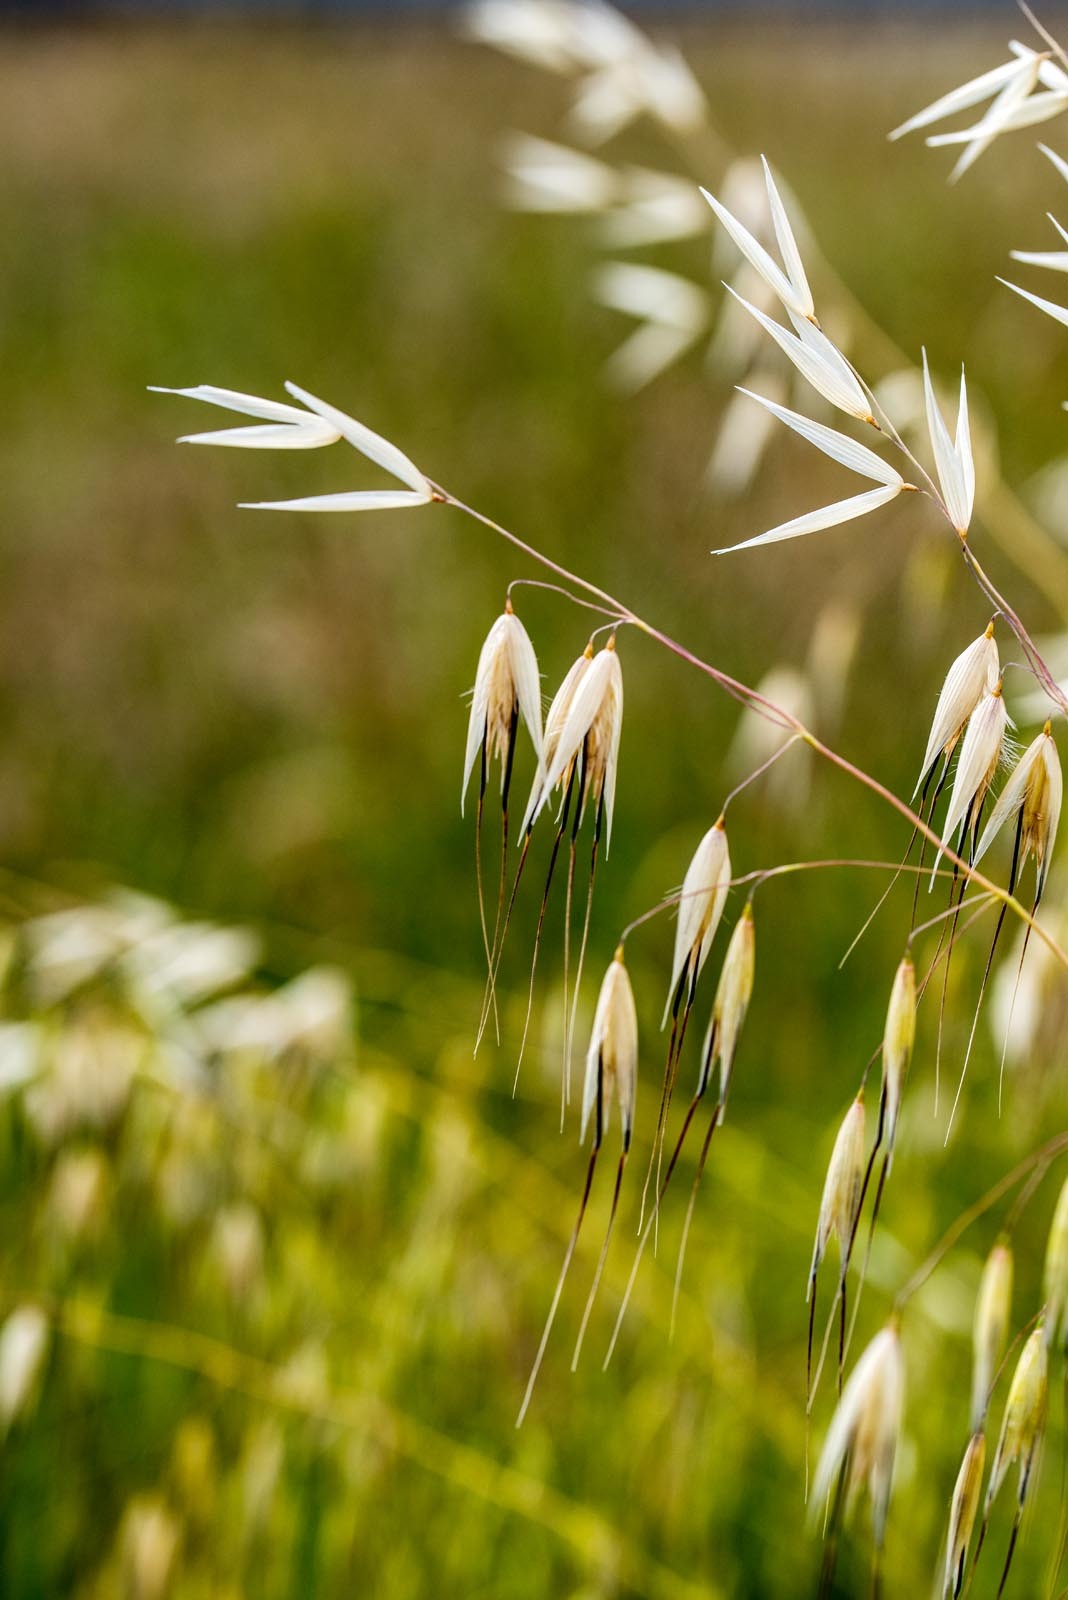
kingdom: Plantae
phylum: Tracheophyta
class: Liliopsida
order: Poales
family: Poaceae
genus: Avena
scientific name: Avena barbata
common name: Slender oat
